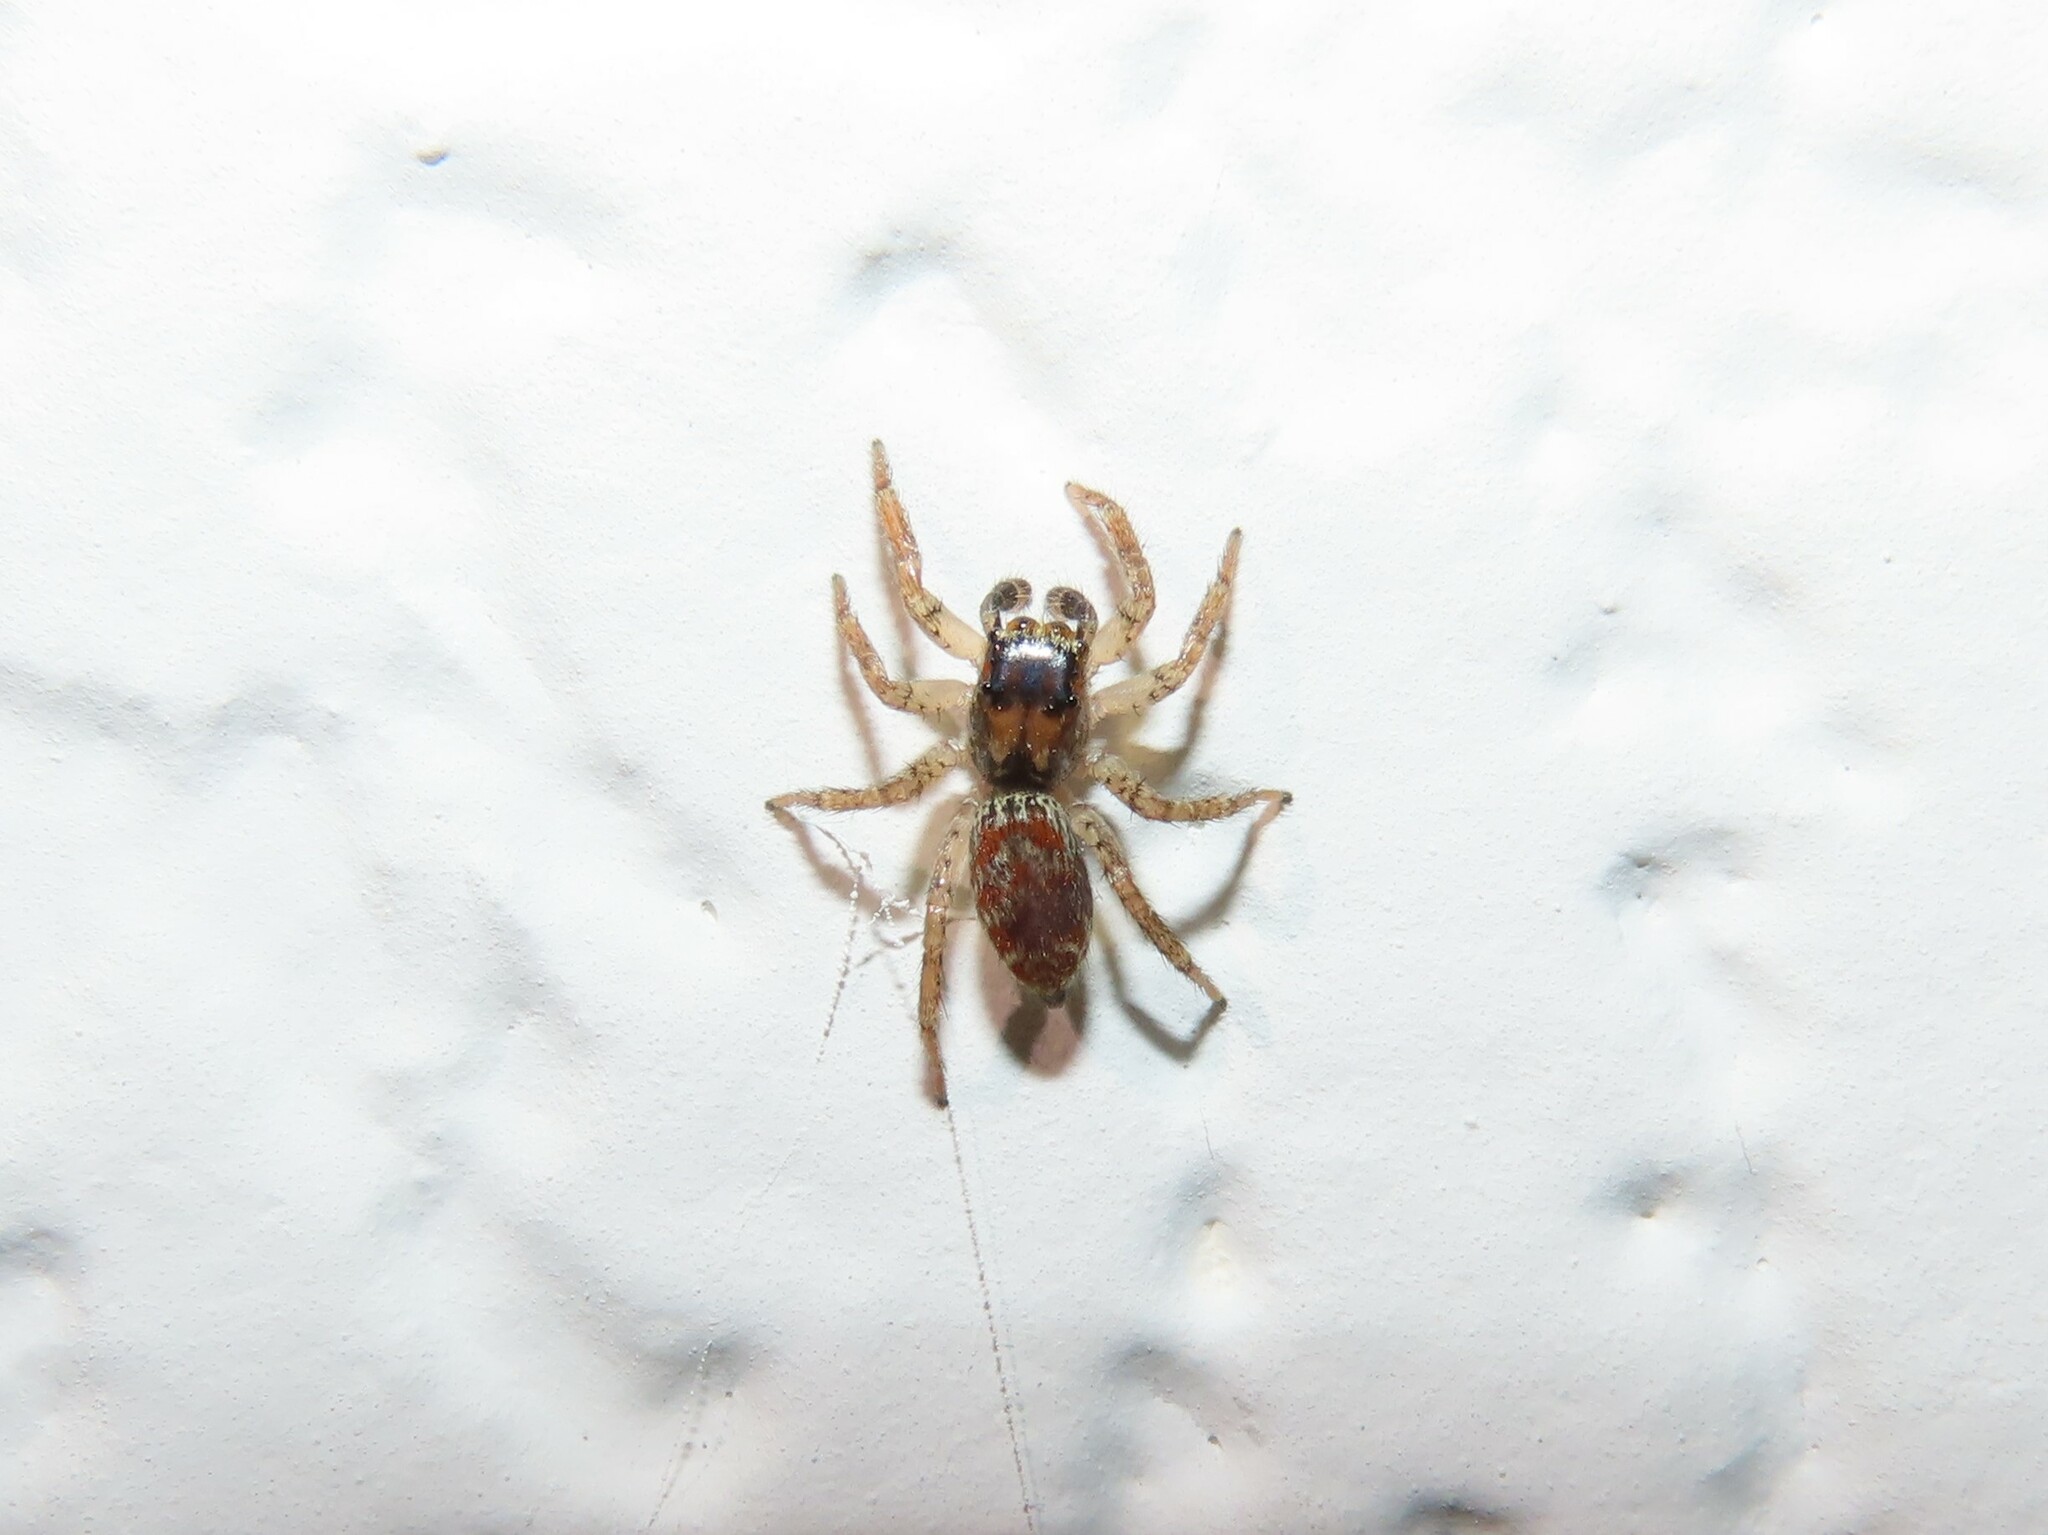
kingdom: Animalia
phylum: Arthropoda
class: Arachnida
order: Araneae
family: Salticidae
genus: Maevia
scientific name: Maevia inclemens
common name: Dimorphic jumper
